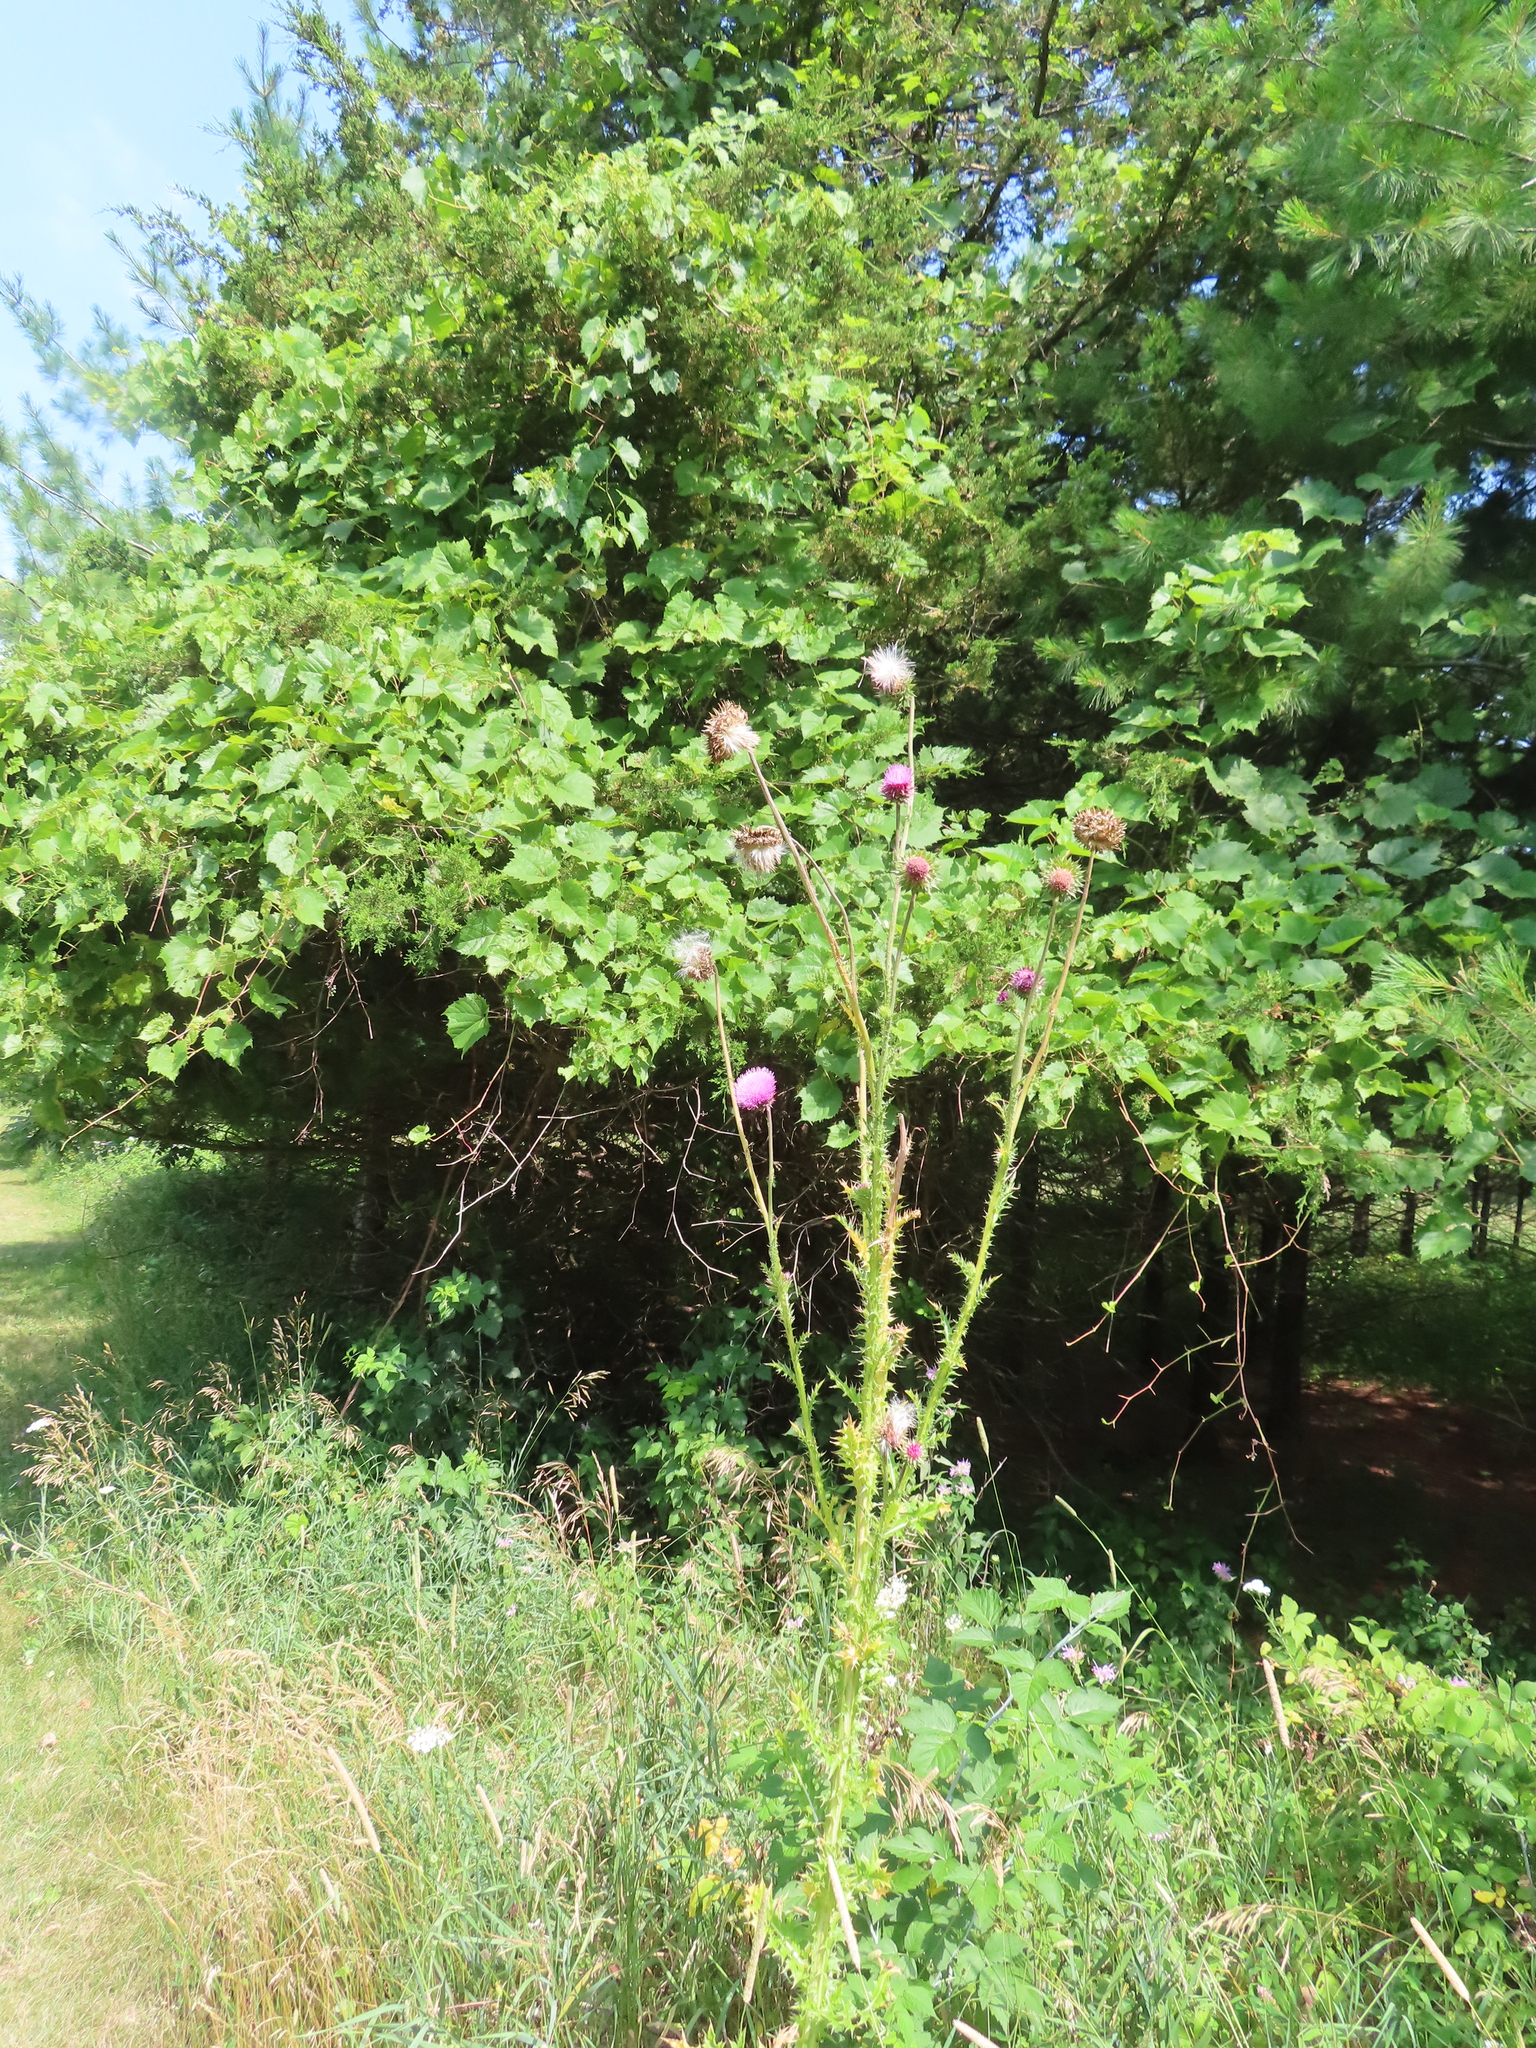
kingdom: Plantae
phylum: Tracheophyta
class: Magnoliopsida
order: Asterales
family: Asteraceae
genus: Carduus
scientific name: Carduus nutans
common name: Musk thistle
